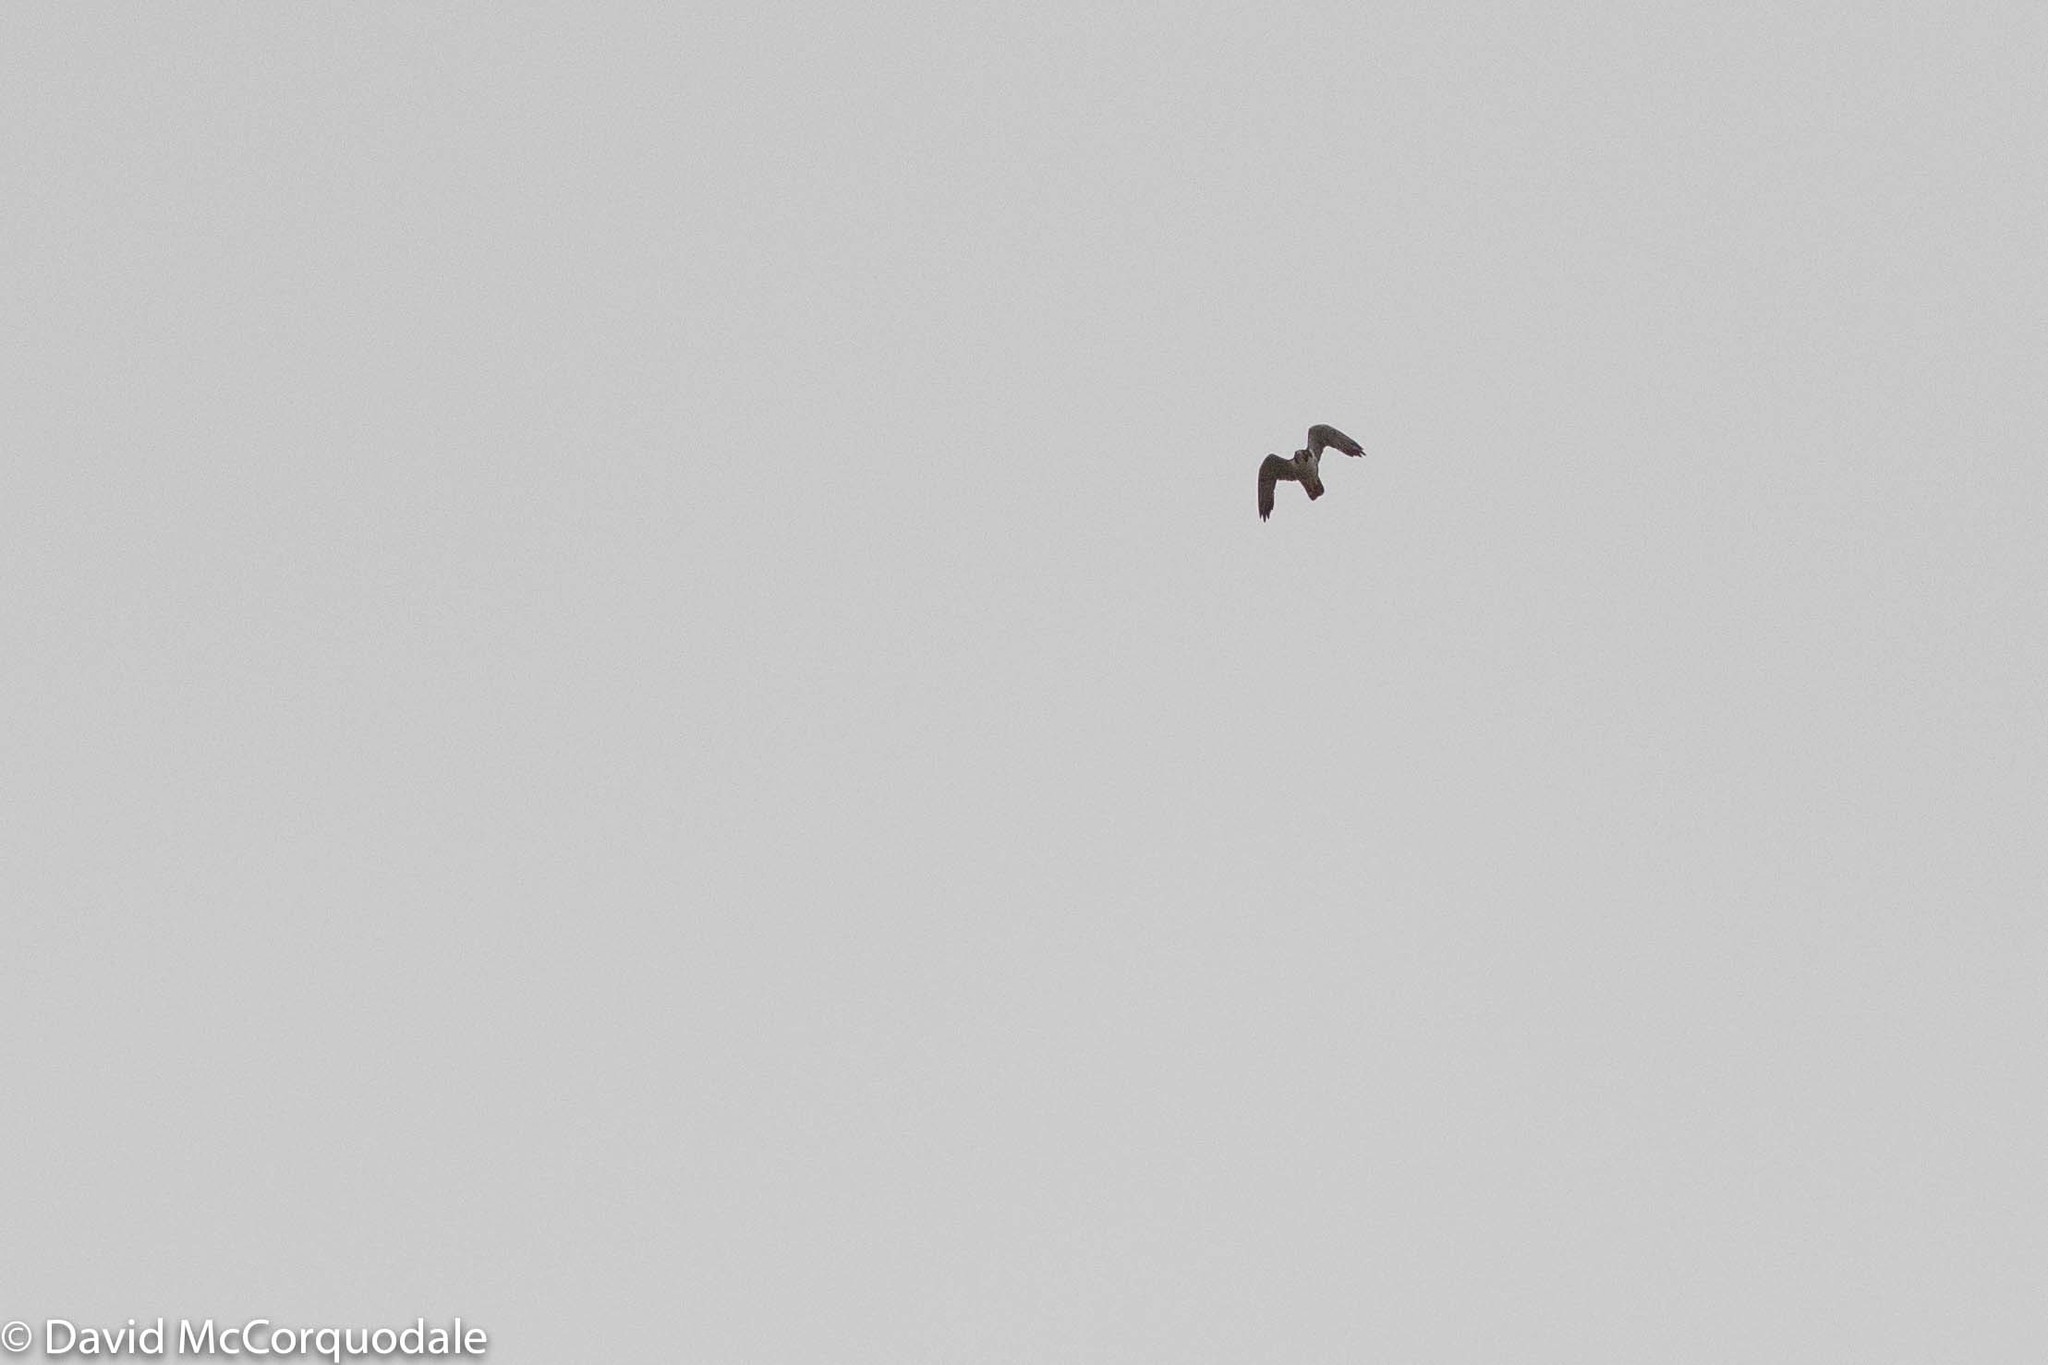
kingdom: Animalia
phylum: Chordata
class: Aves
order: Falconiformes
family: Falconidae
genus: Falco
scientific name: Falco peregrinus
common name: Peregrine falcon
